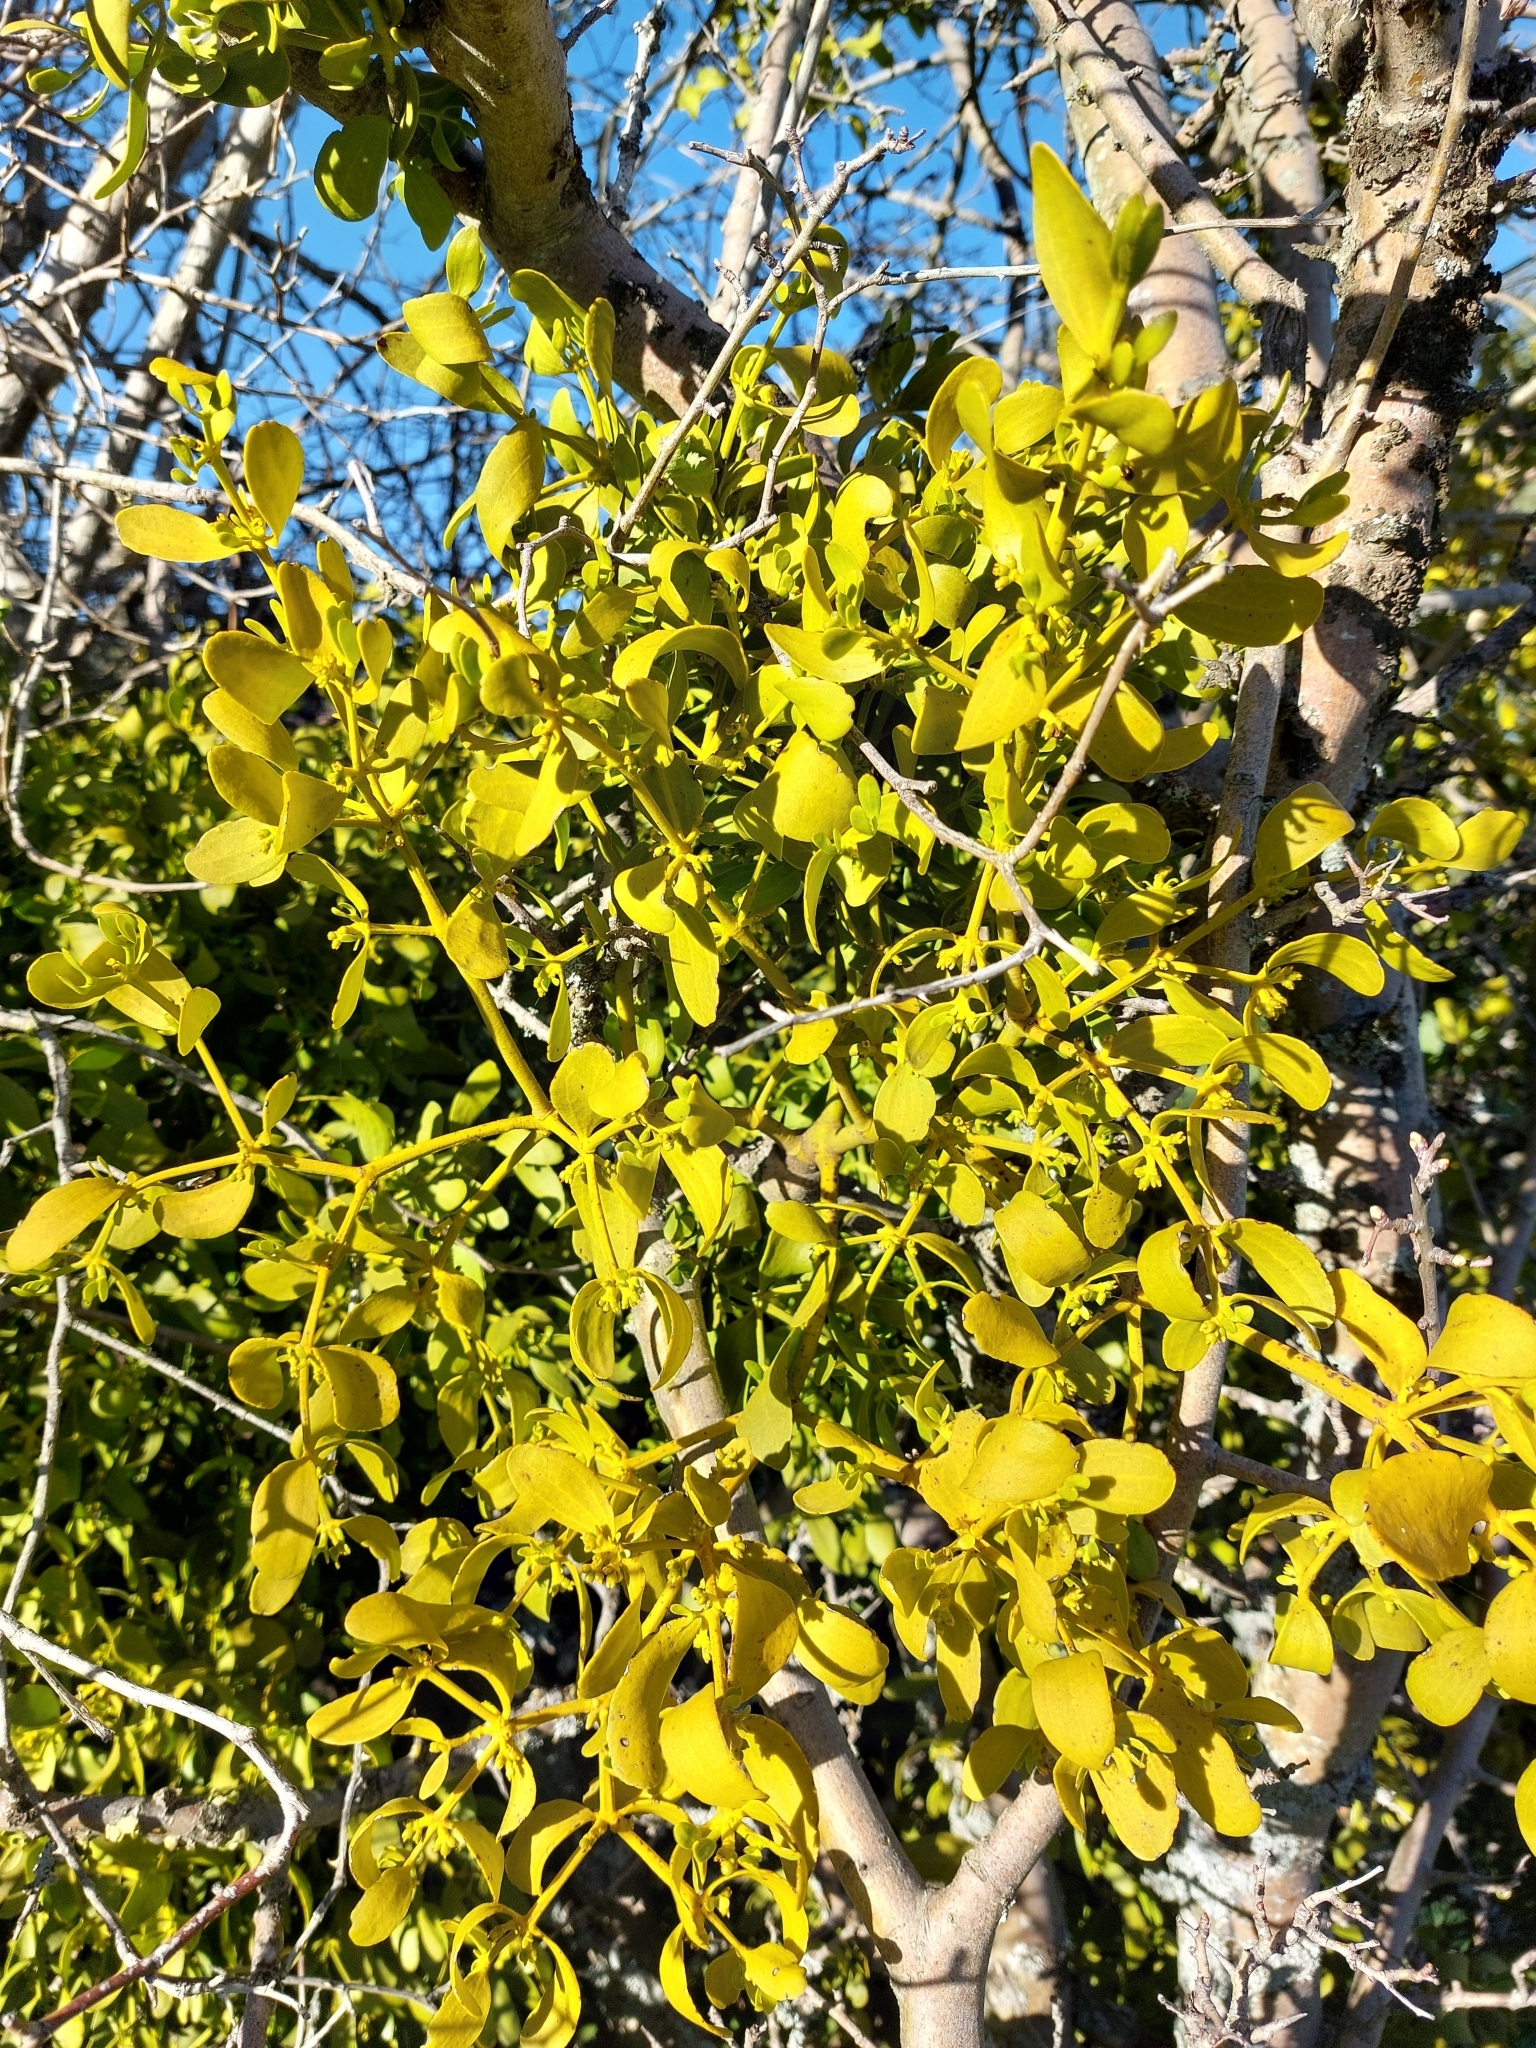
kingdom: Plantae
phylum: Tracheophyta
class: Magnoliopsida
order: Santalales
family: Viscaceae
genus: Viscum
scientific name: Viscum cruciatum
